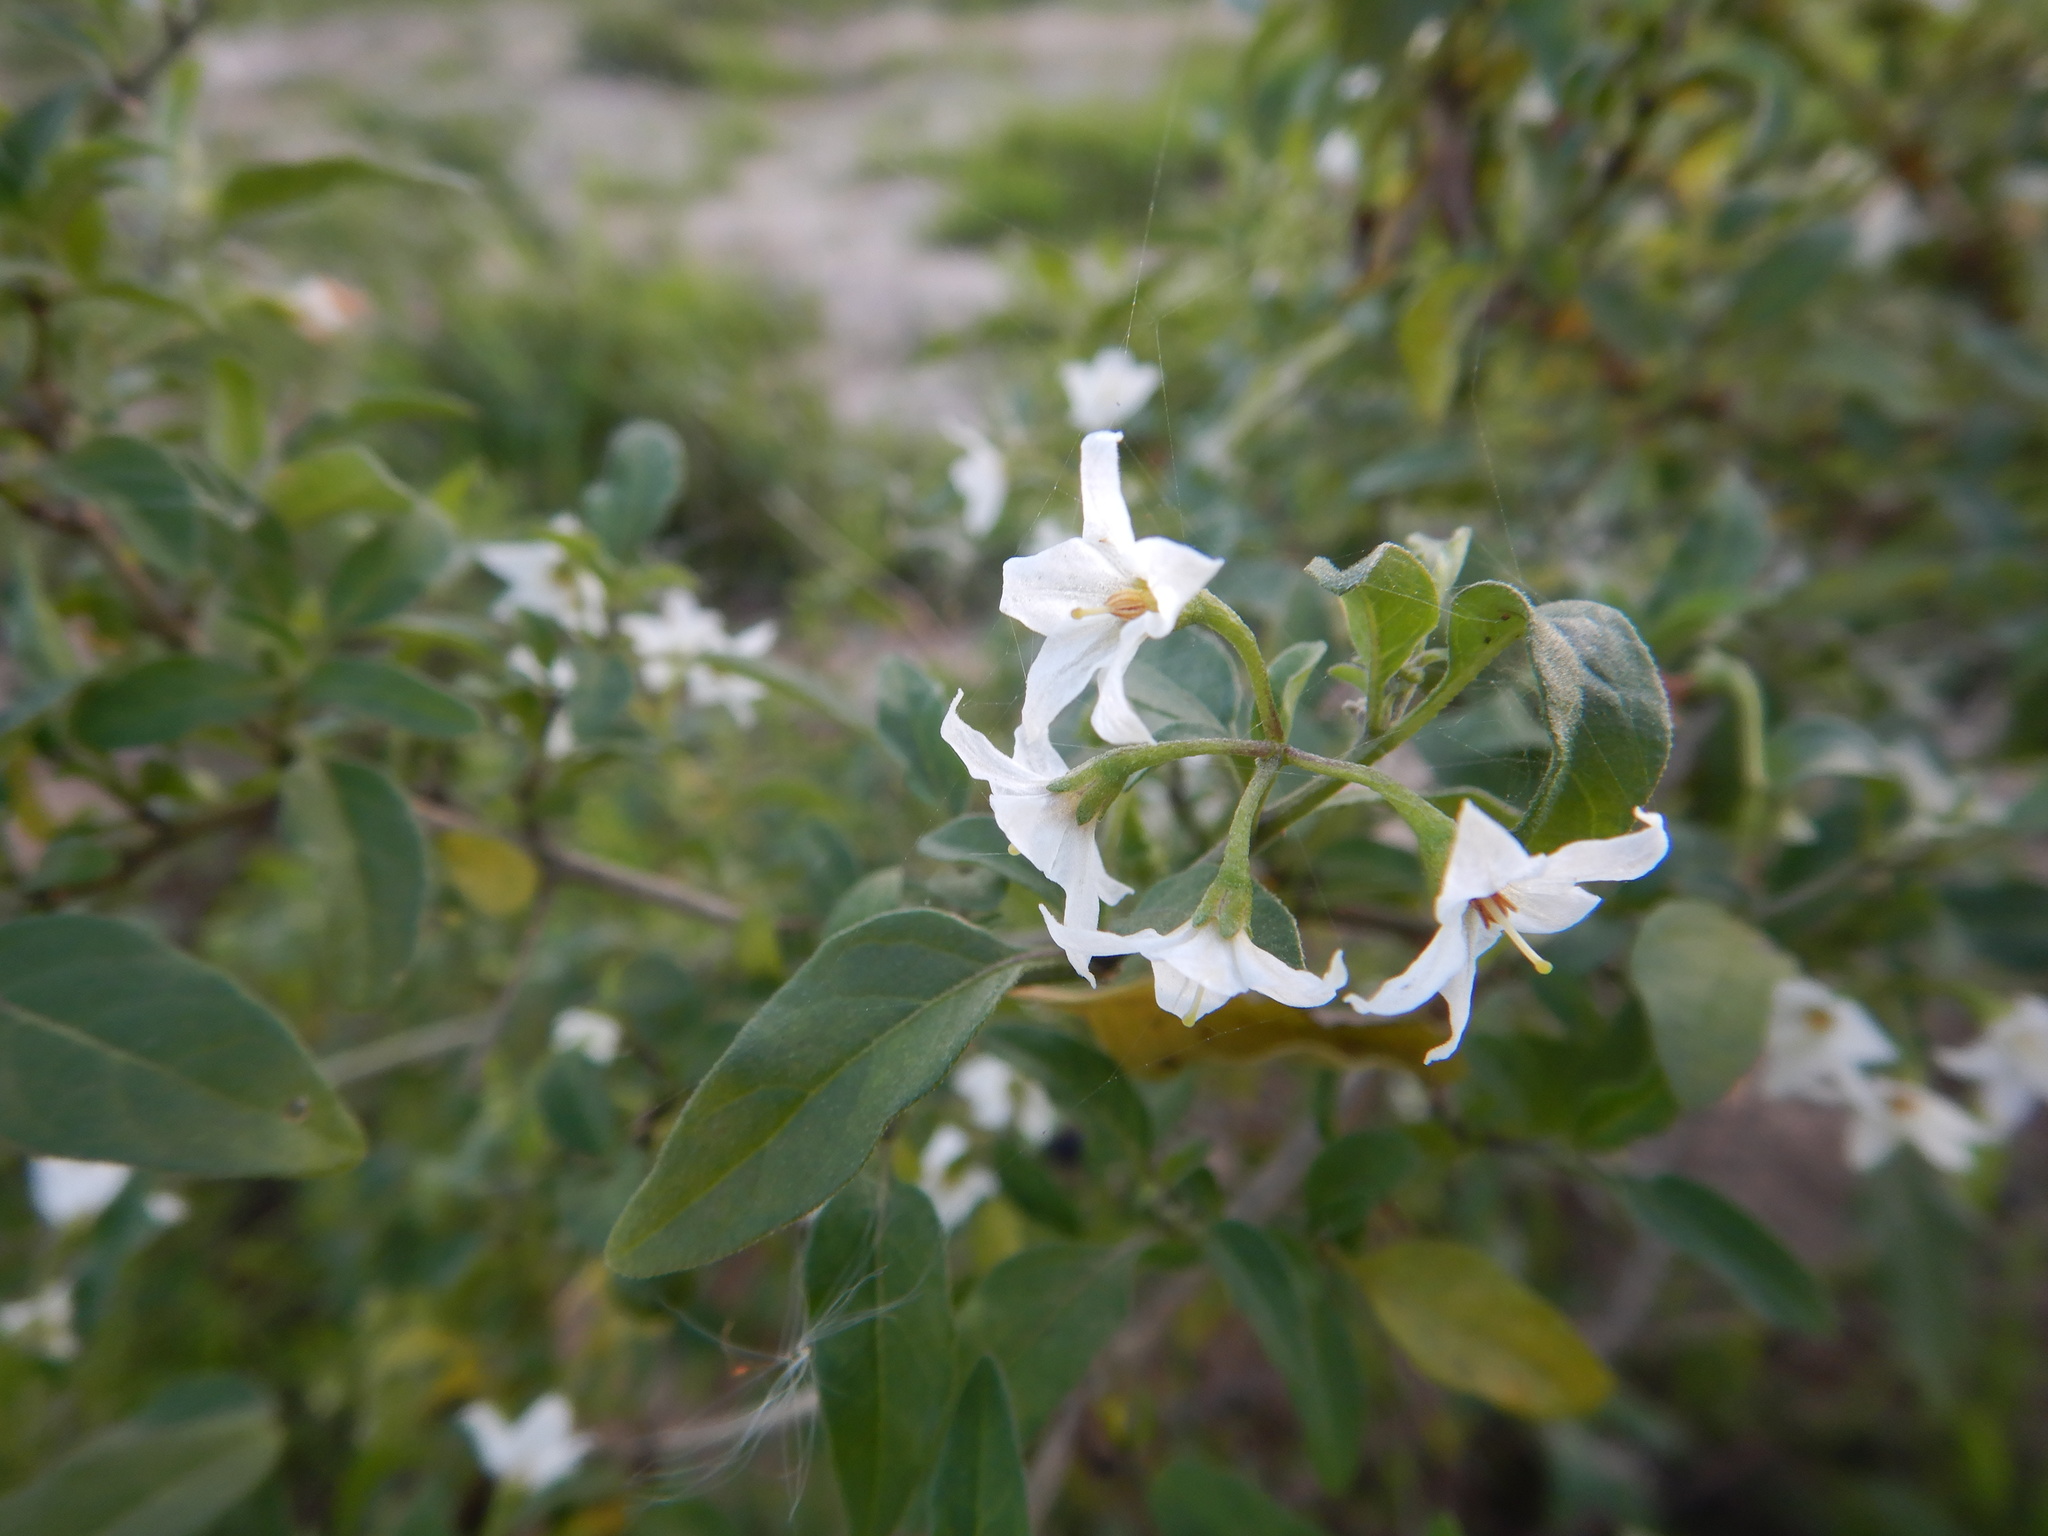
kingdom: Plantae
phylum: Tracheophyta
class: Magnoliopsida
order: Solanales
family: Solanaceae
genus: Solanum
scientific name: Solanum chenopodioides
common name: Tall nightshade
